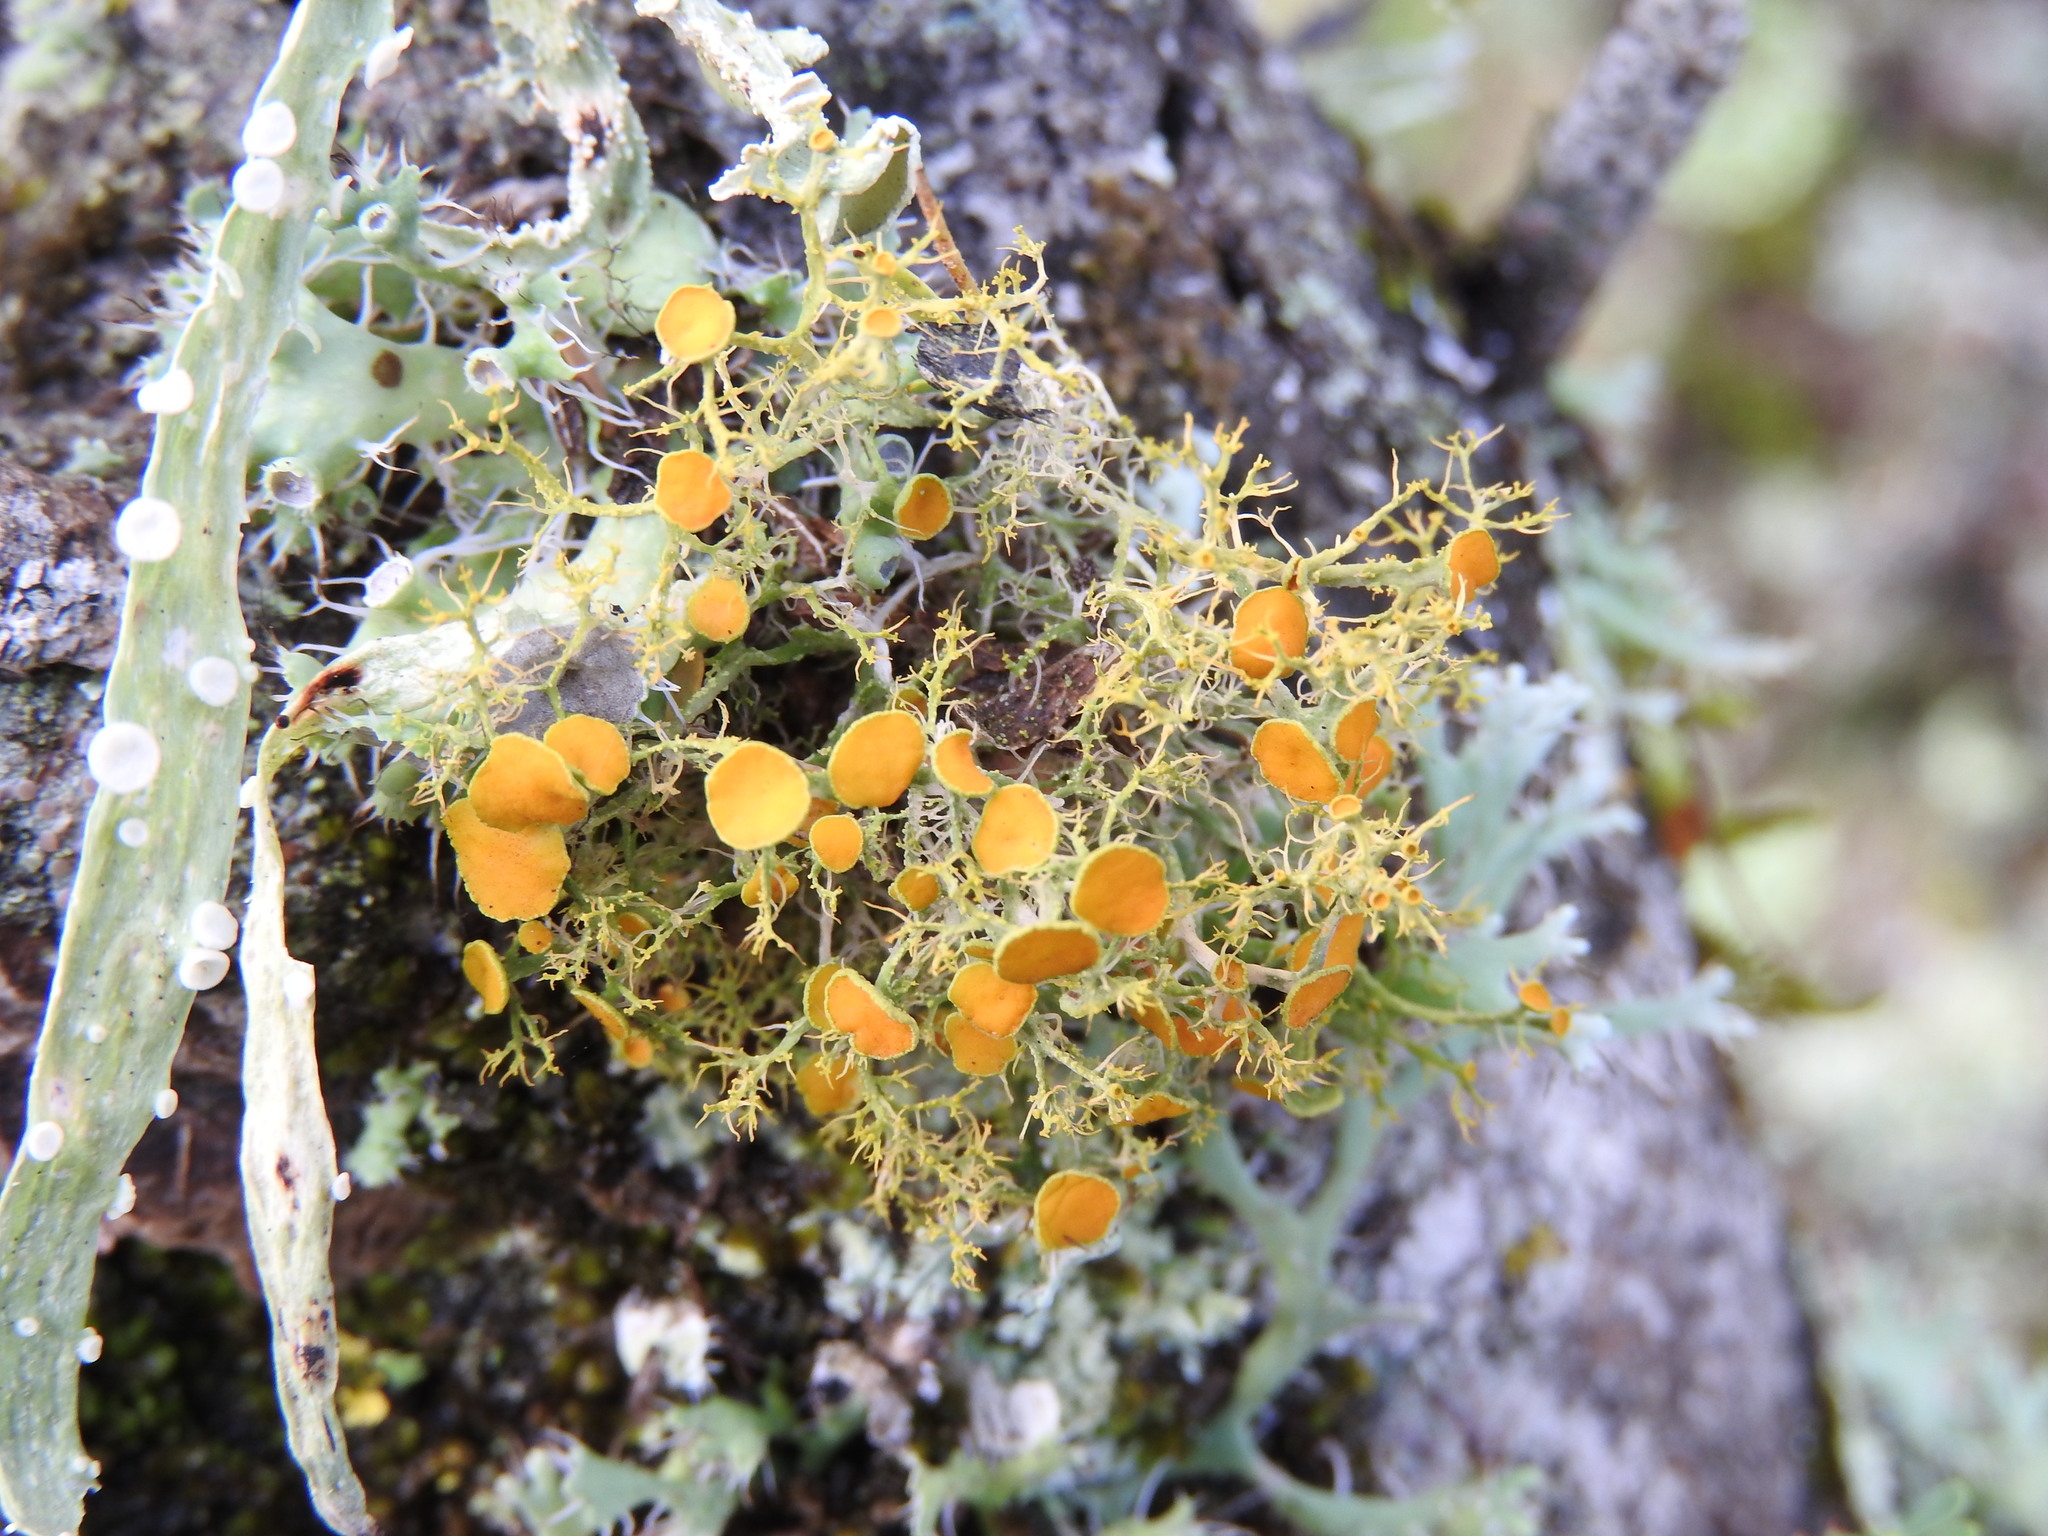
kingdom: Fungi
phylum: Ascomycota
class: Lecanoromycetes
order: Teloschistales
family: Teloschistaceae
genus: Teloschistes
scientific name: Teloschistes exilis
